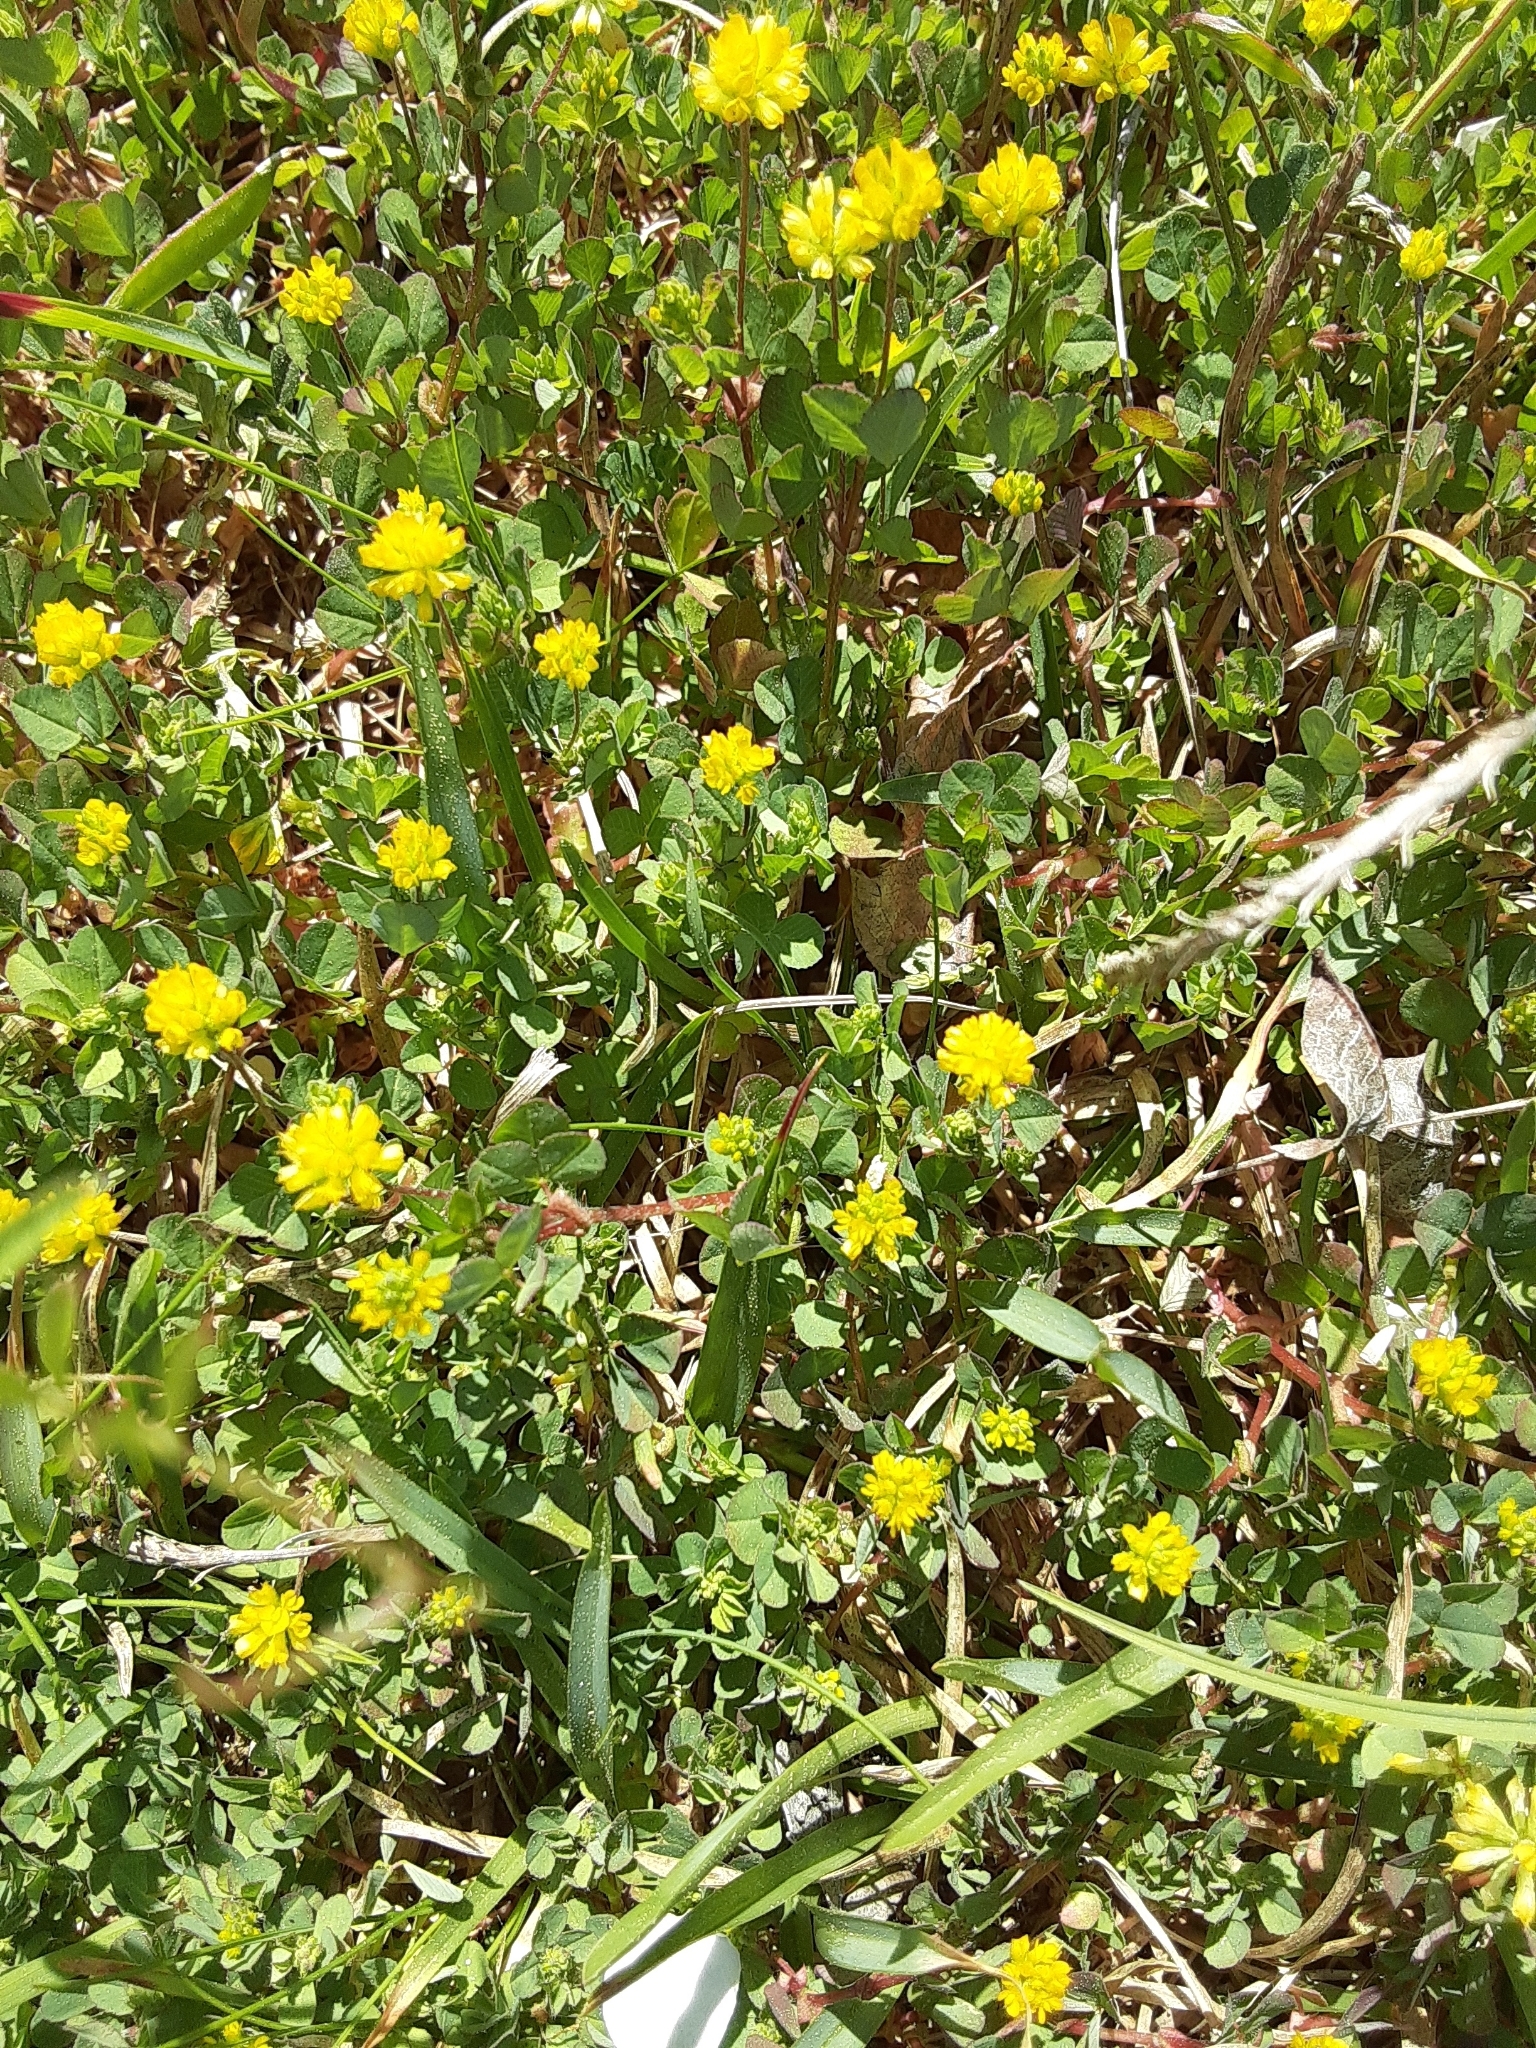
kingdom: Plantae
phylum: Tracheophyta
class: Magnoliopsida
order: Fabales
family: Fabaceae
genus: Trifolium
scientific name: Trifolium dubium
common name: Suckling clover
